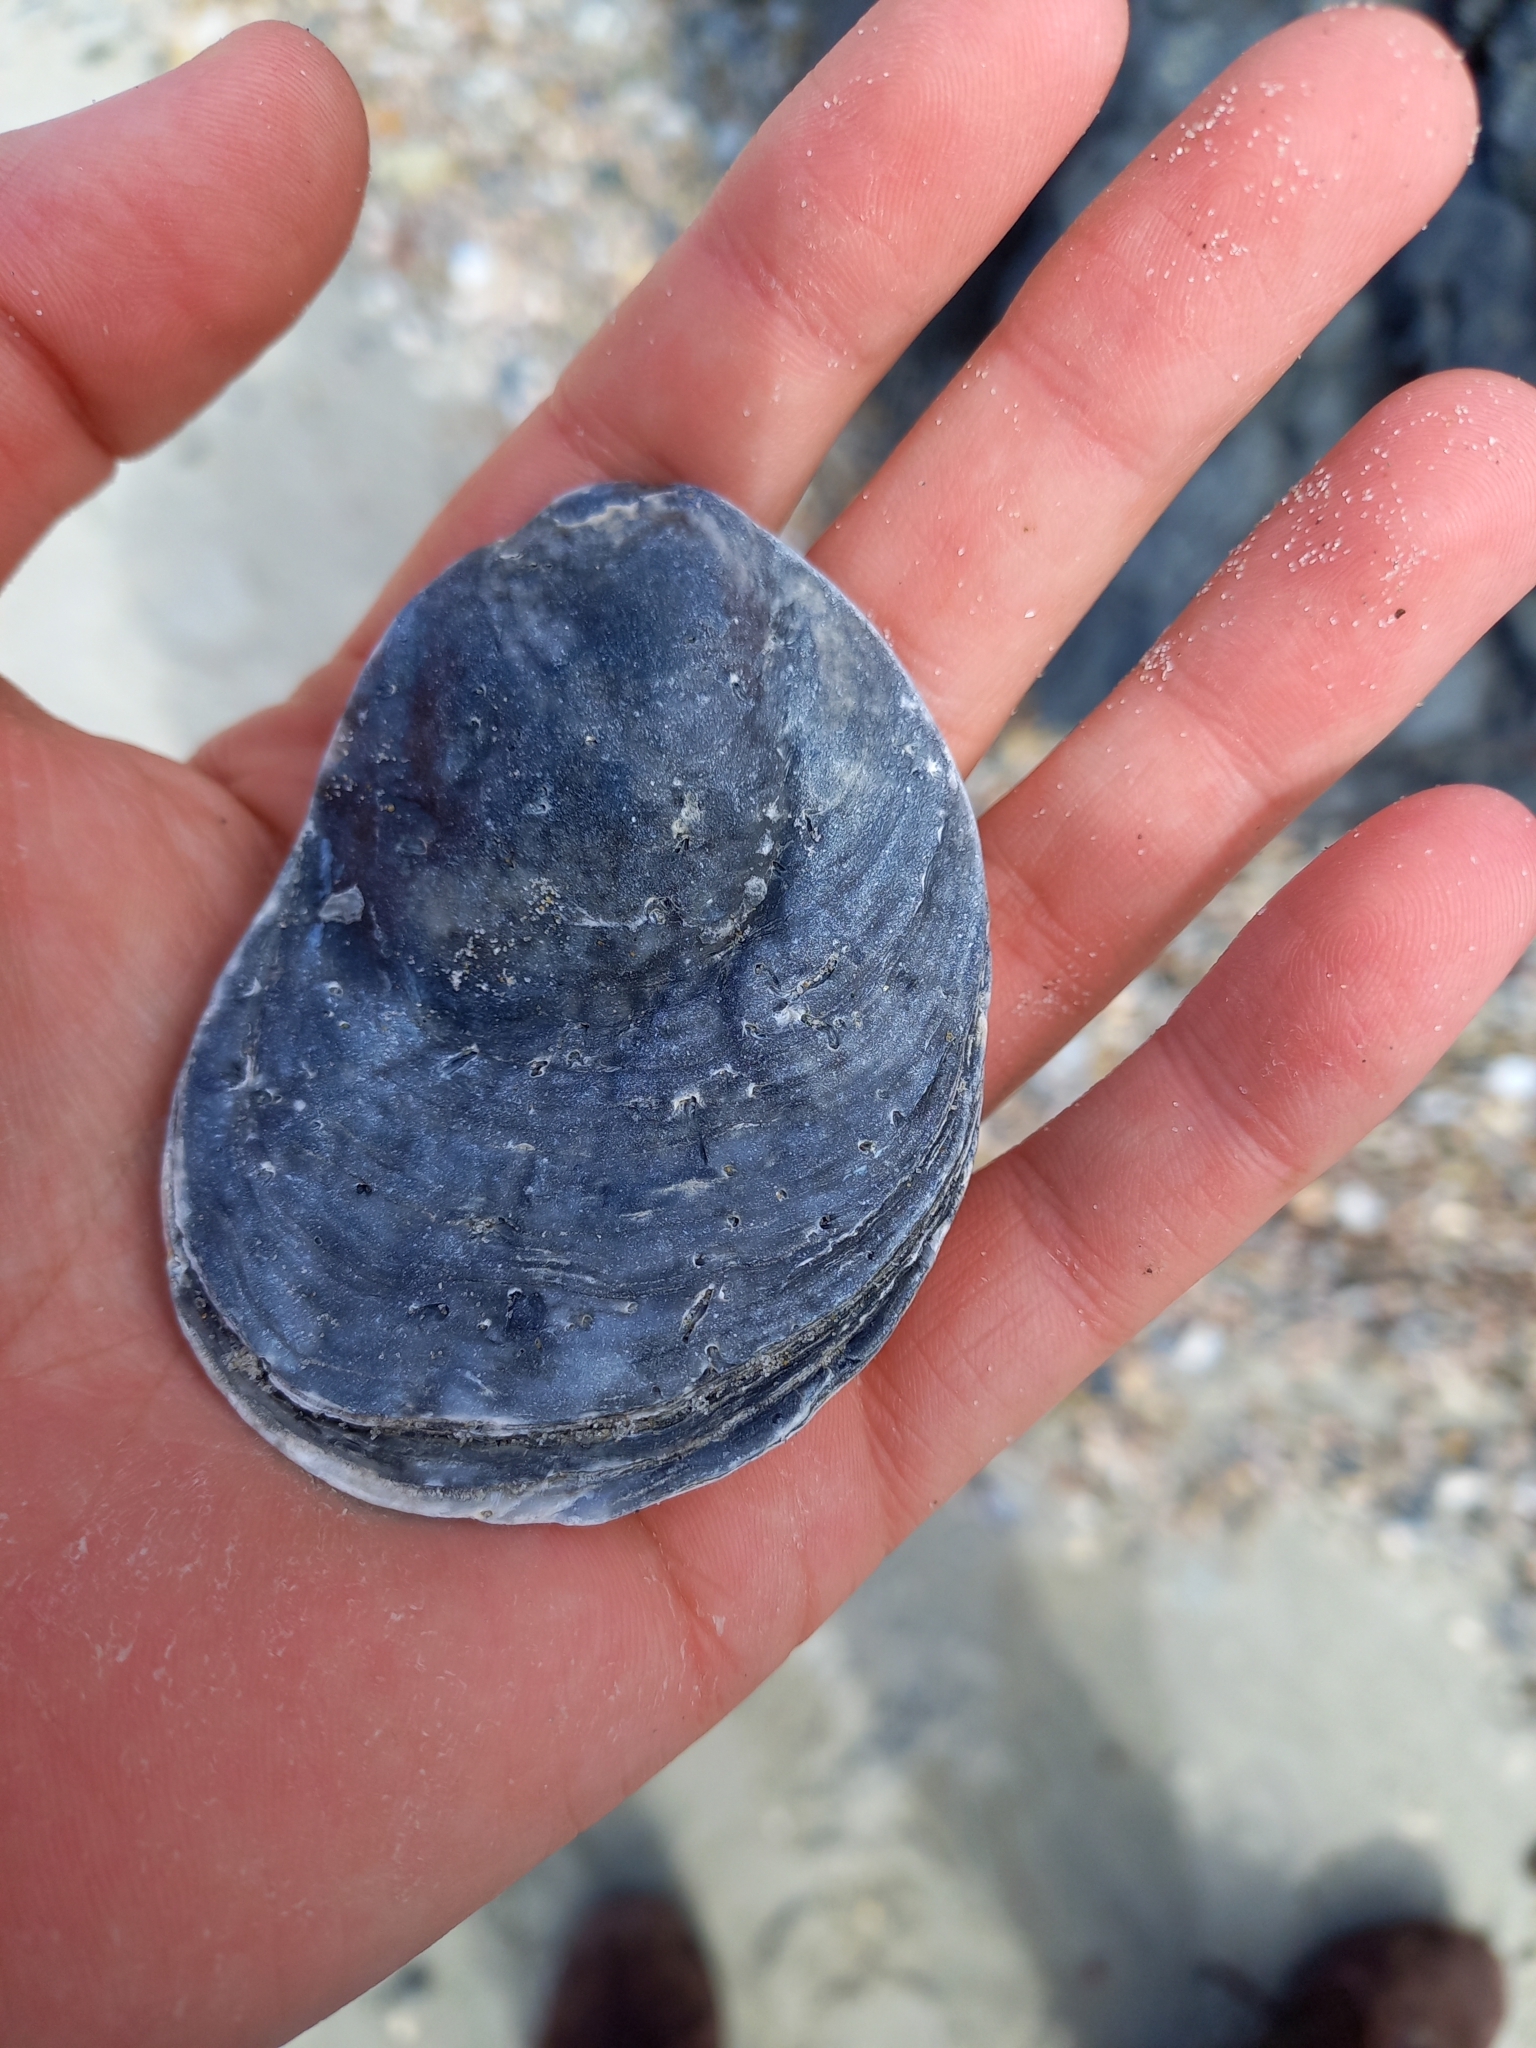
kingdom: Animalia
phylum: Mollusca
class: Bivalvia
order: Ostreida
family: Ostreidae
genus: Ostrea
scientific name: Ostrea chilensis
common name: Chilean oyster
